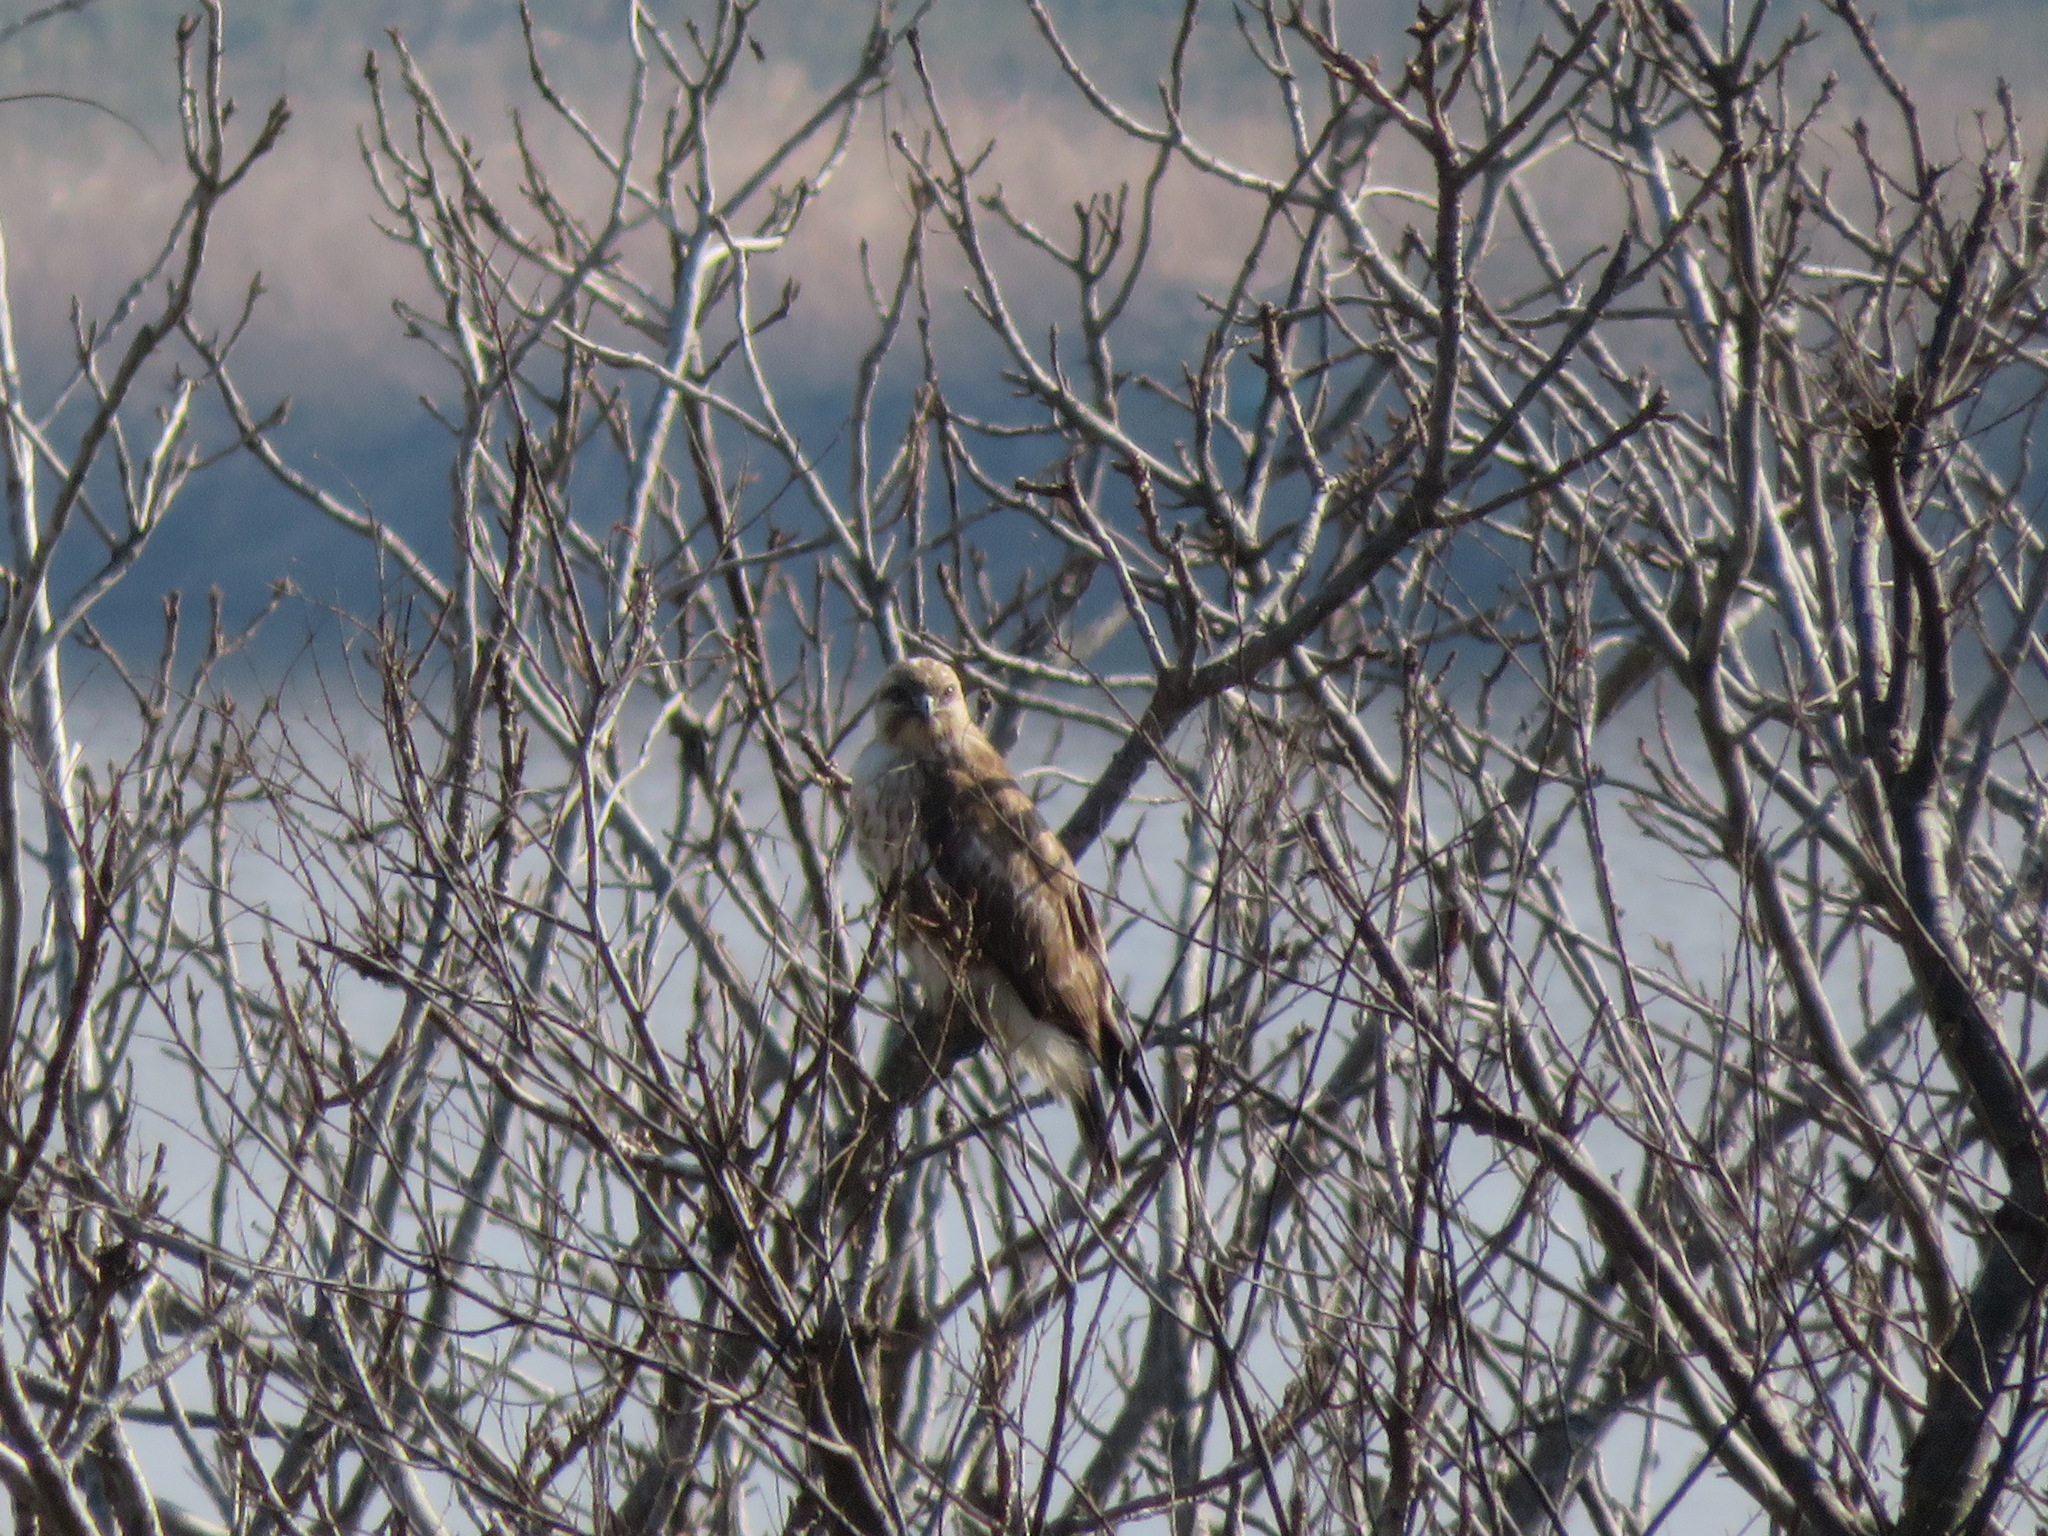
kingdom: Animalia
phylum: Chordata
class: Aves
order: Accipitriformes
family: Accipitridae
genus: Buteo
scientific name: Buteo japonicus
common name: Eastern buzzard
